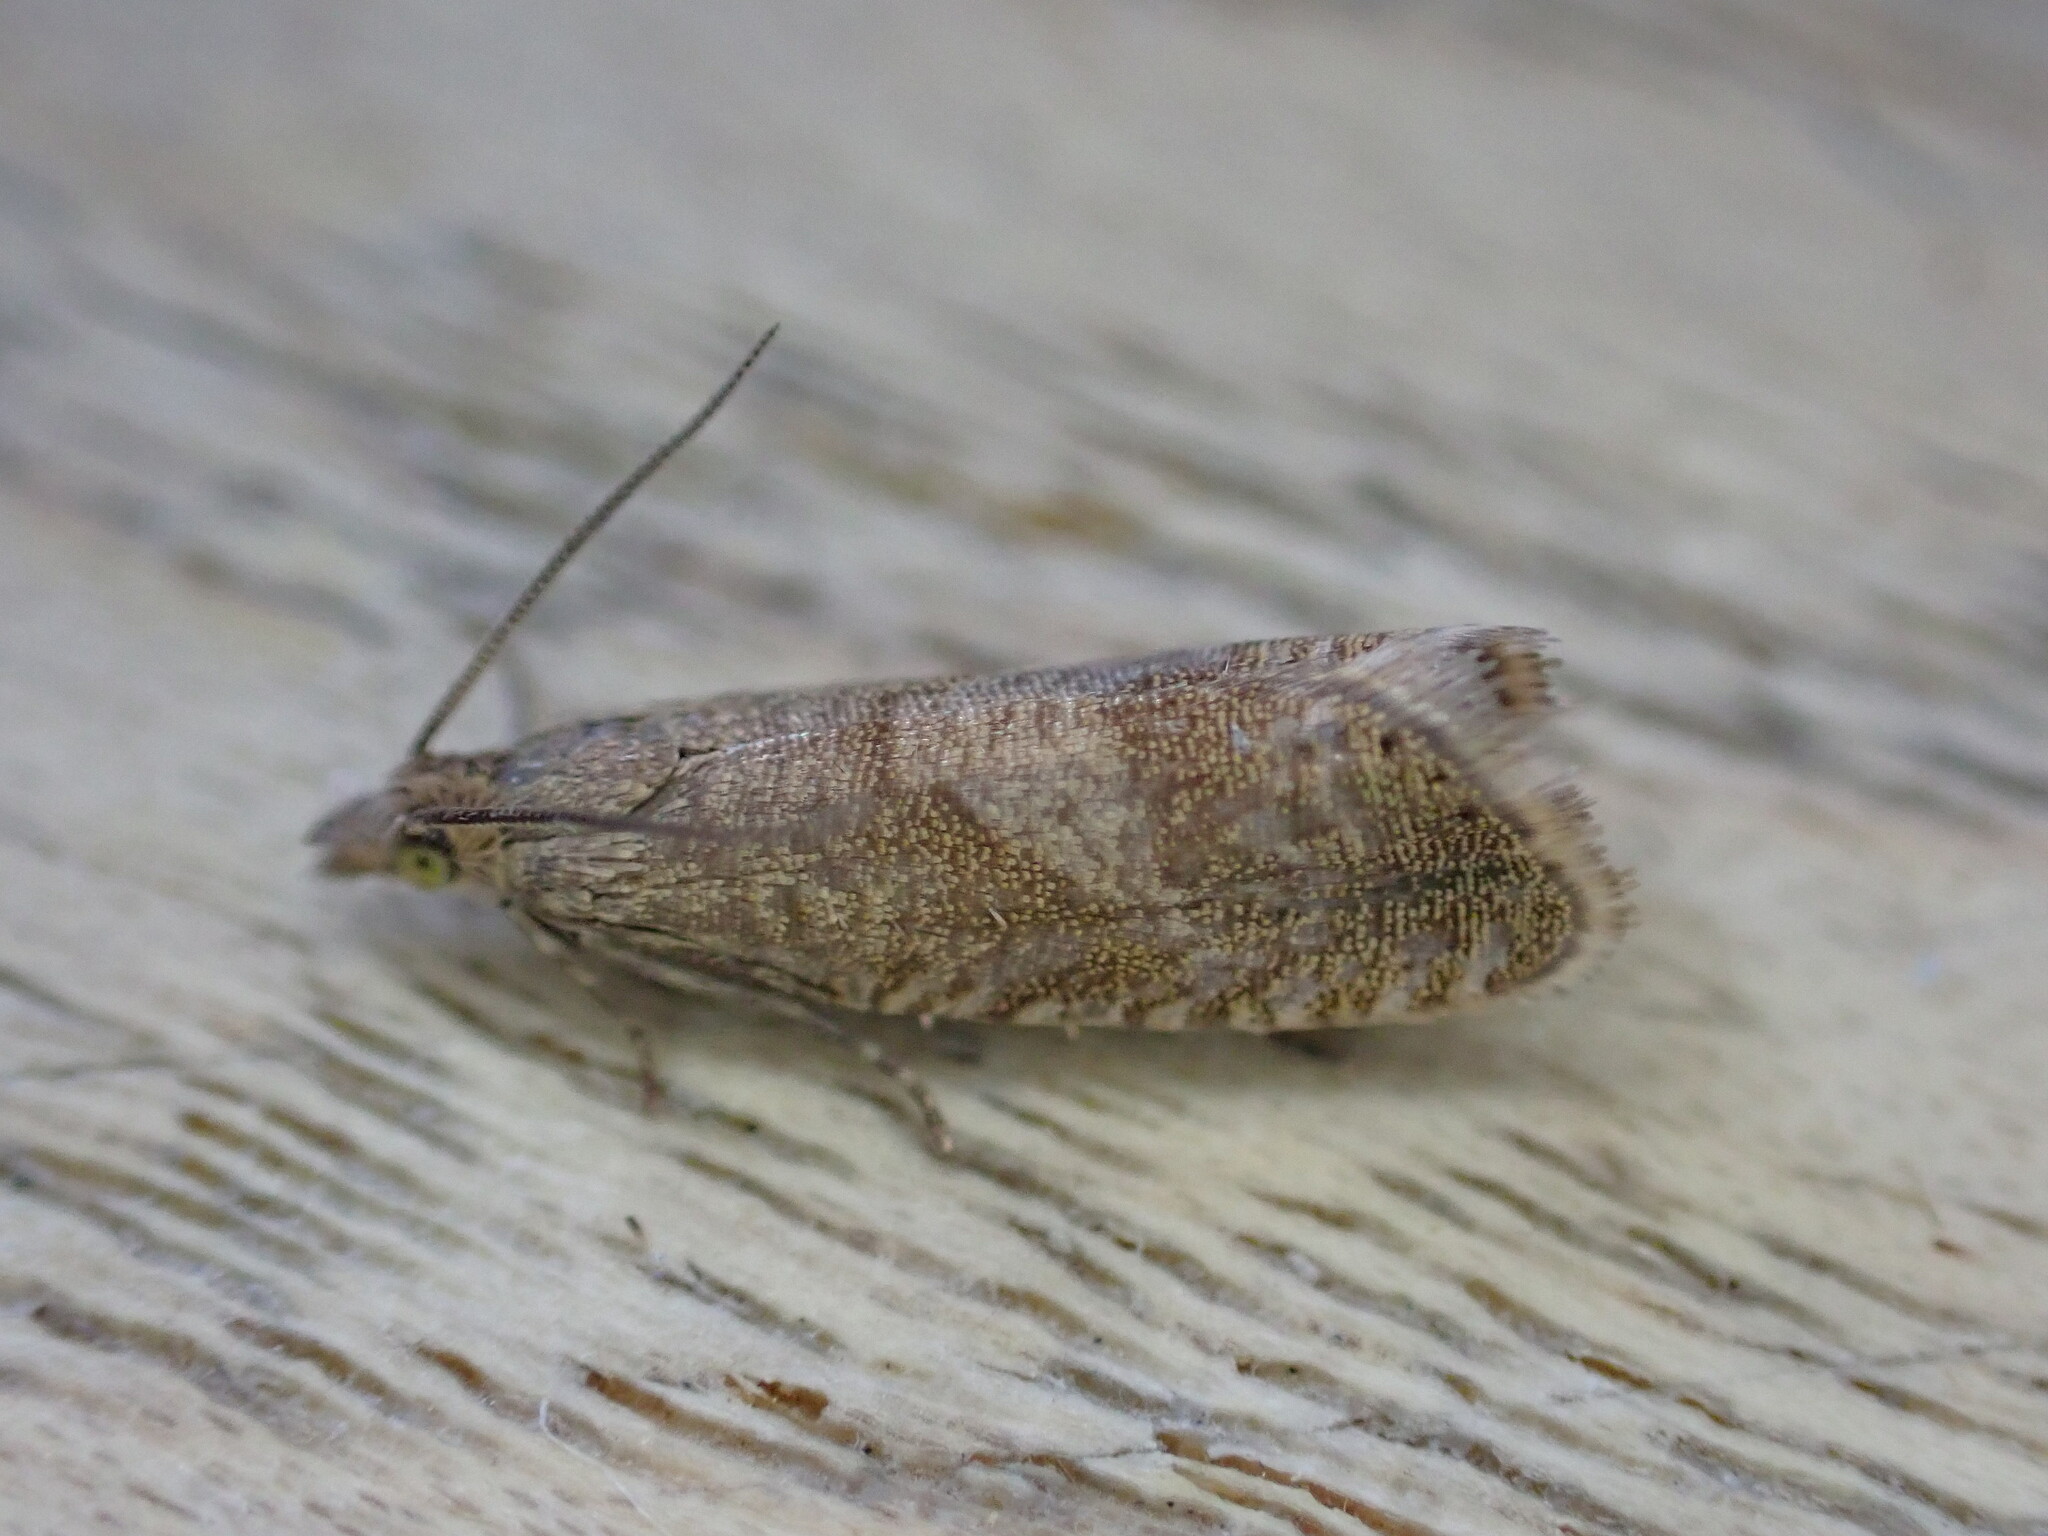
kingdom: Animalia
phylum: Arthropoda
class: Insecta
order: Lepidoptera
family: Tortricidae
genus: Dichrorampha
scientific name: Dichrorampha acuminatana
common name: Sharp-winged drill
